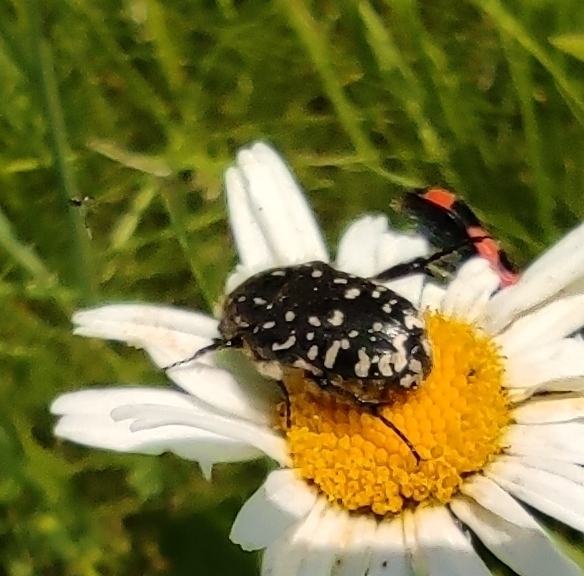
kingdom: Animalia
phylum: Arthropoda
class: Insecta
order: Coleoptera
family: Scarabaeidae
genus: Oxythyrea
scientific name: Oxythyrea funesta
